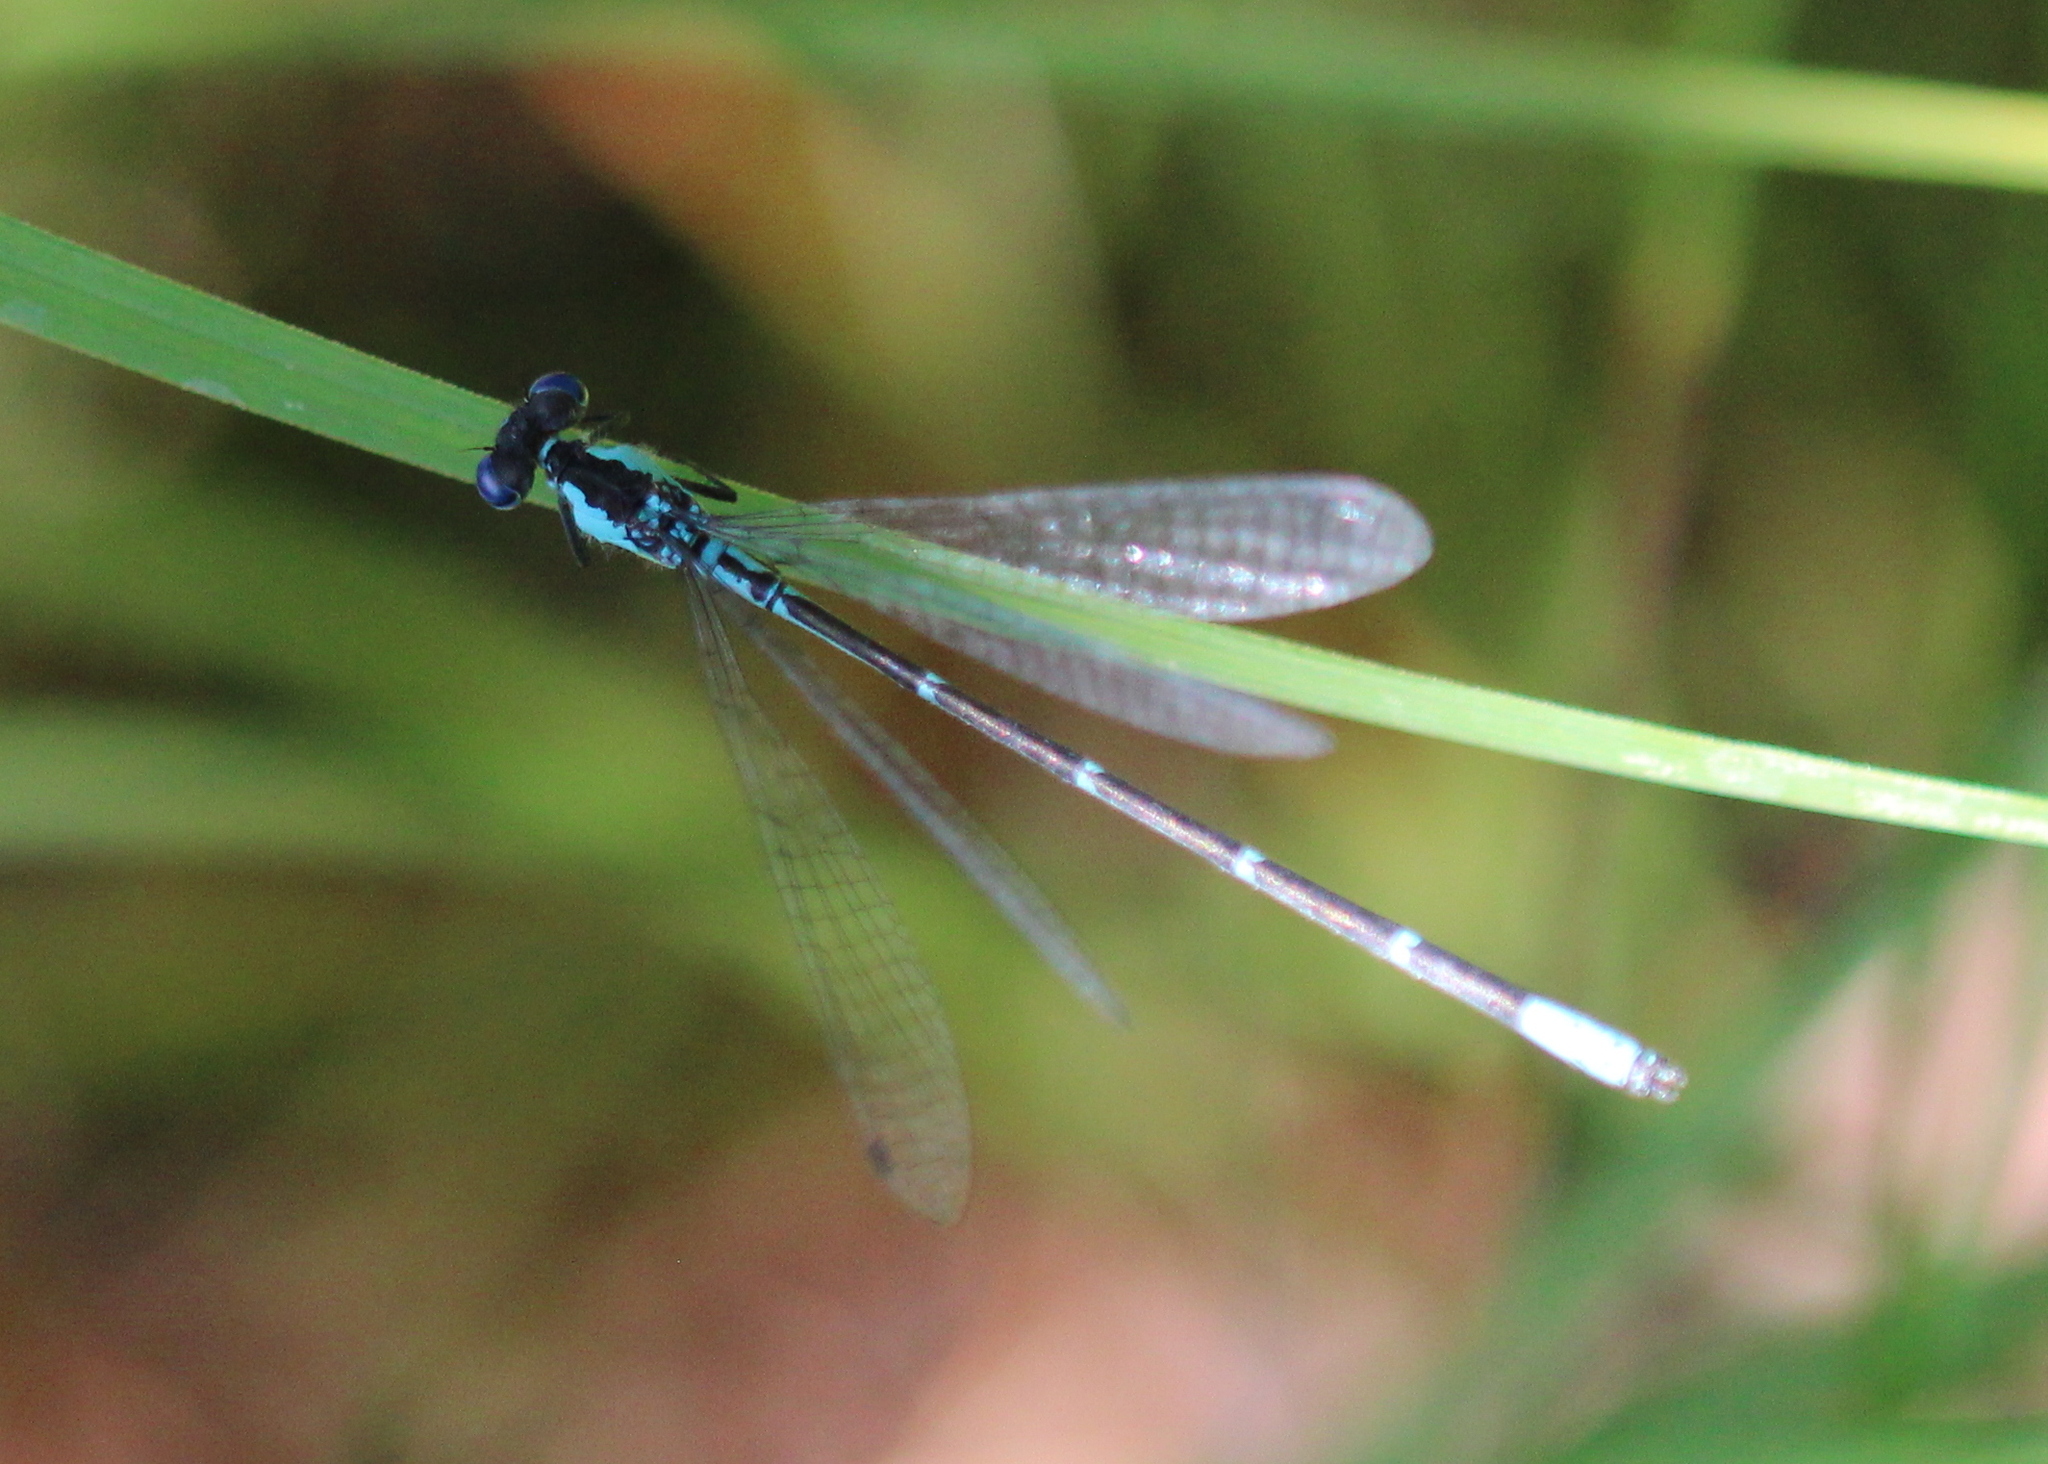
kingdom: Animalia
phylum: Arthropoda
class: Insecta
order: Odonata
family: Coenagrionidae
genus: Chromagrion
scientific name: Chromagrion conditum
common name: Aurora damsel
